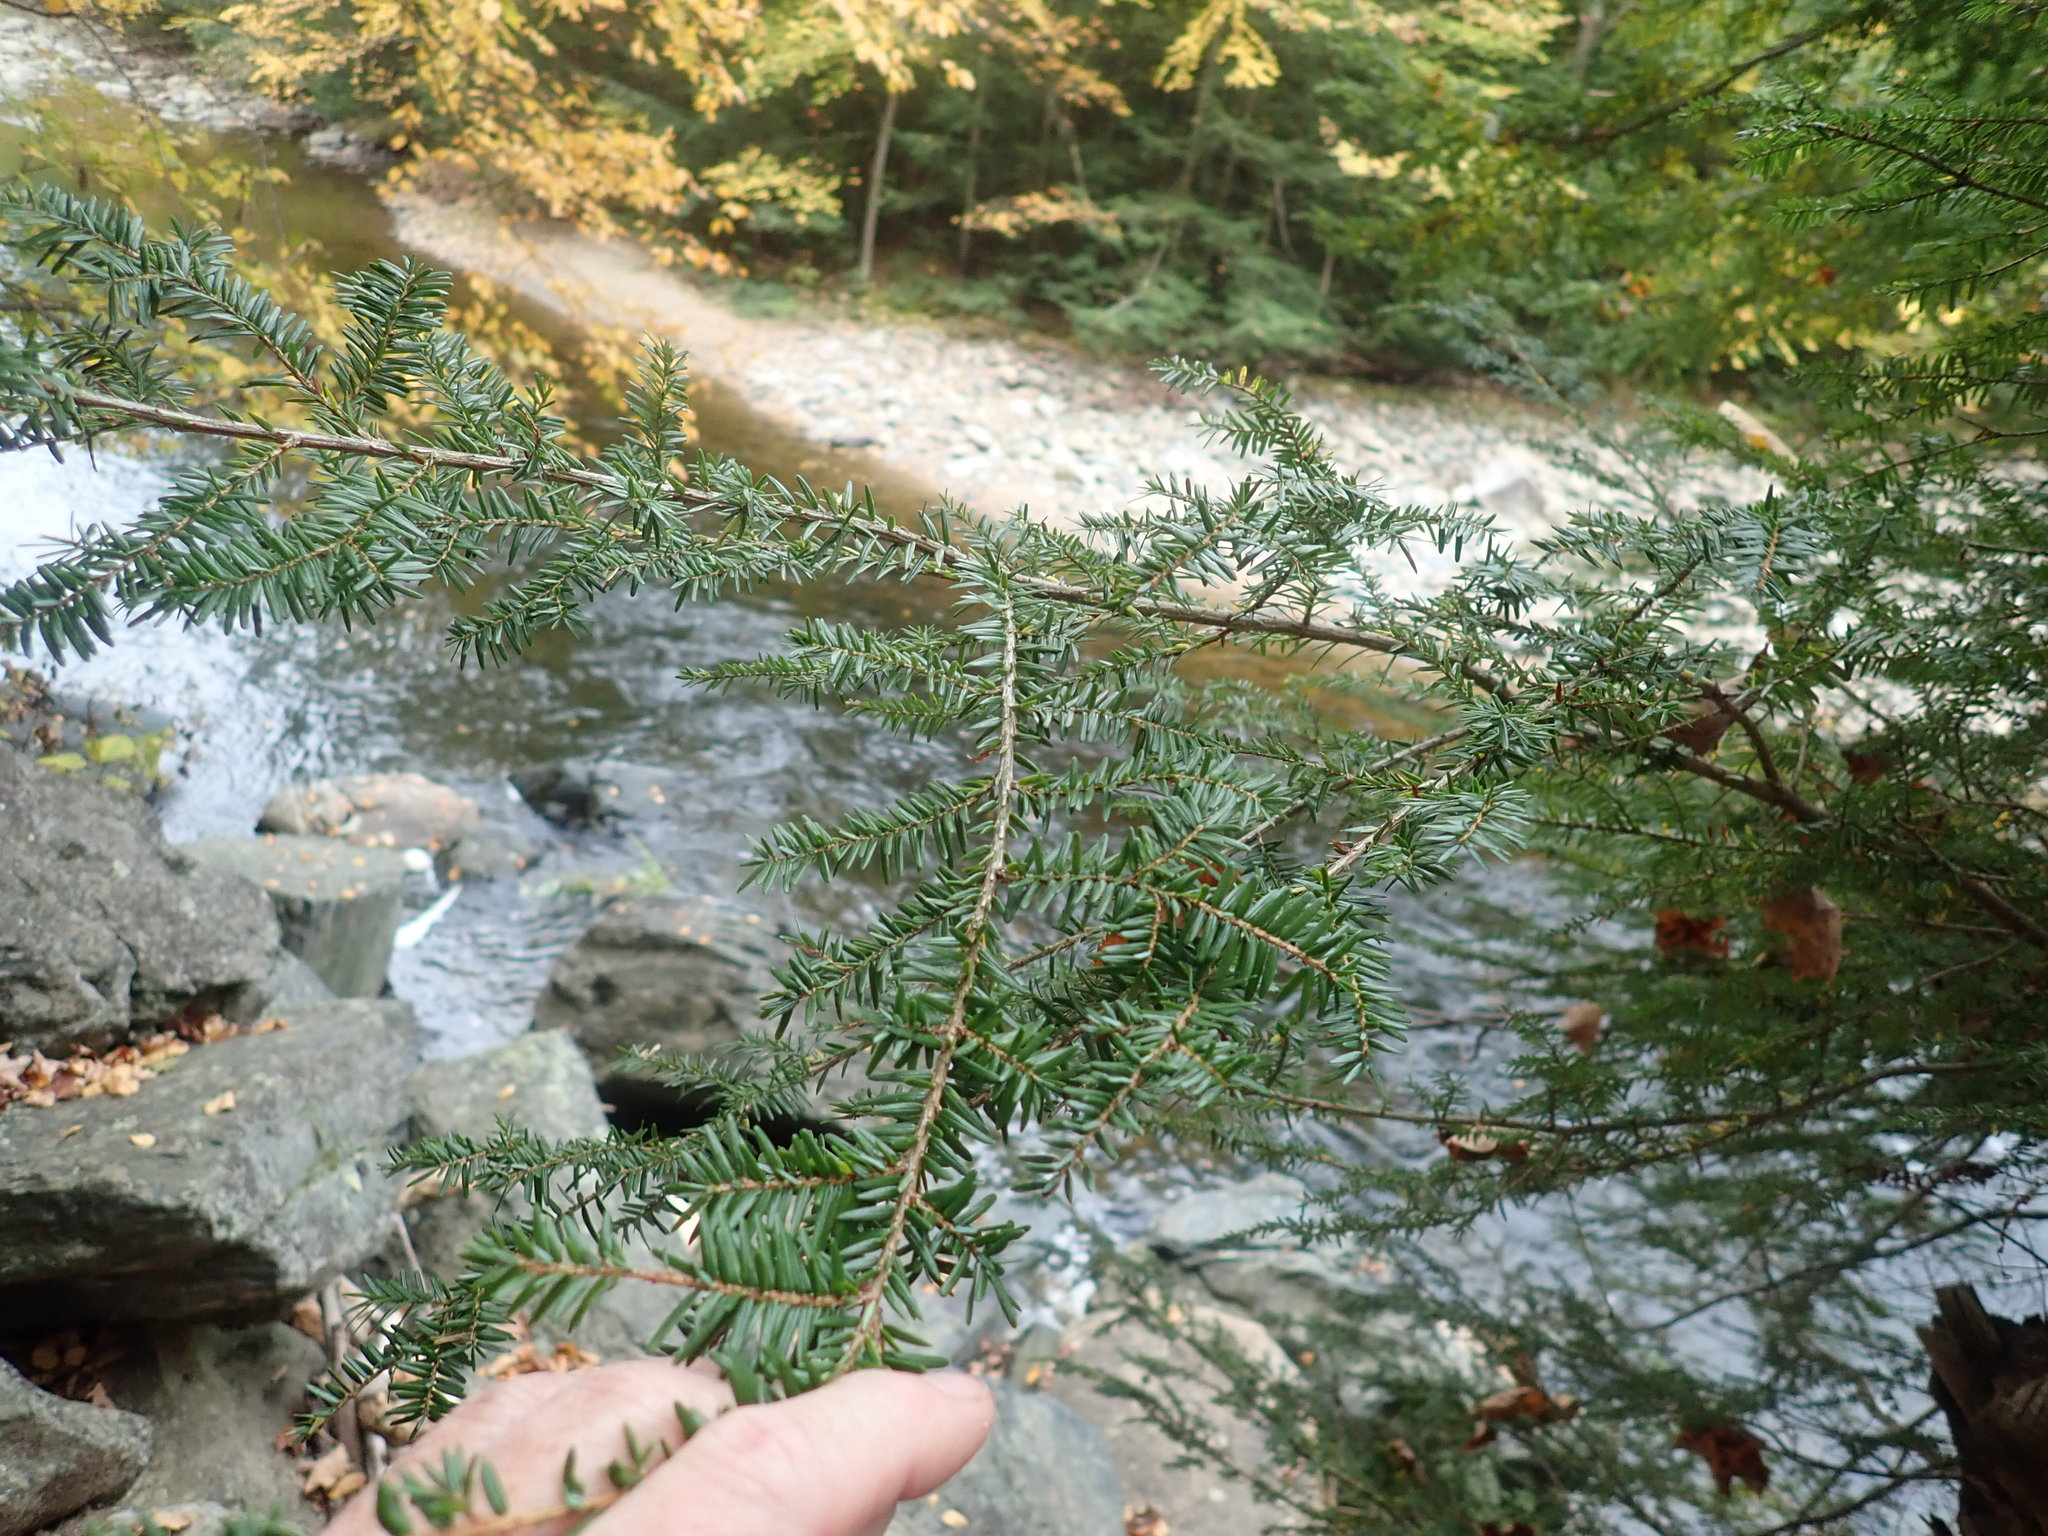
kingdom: Plantae
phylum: Tracheophyta
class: Pinopsida
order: Pinales
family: Pinaceae
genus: Tsuga
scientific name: Tsuga canadensis
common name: Eastern hemlock
